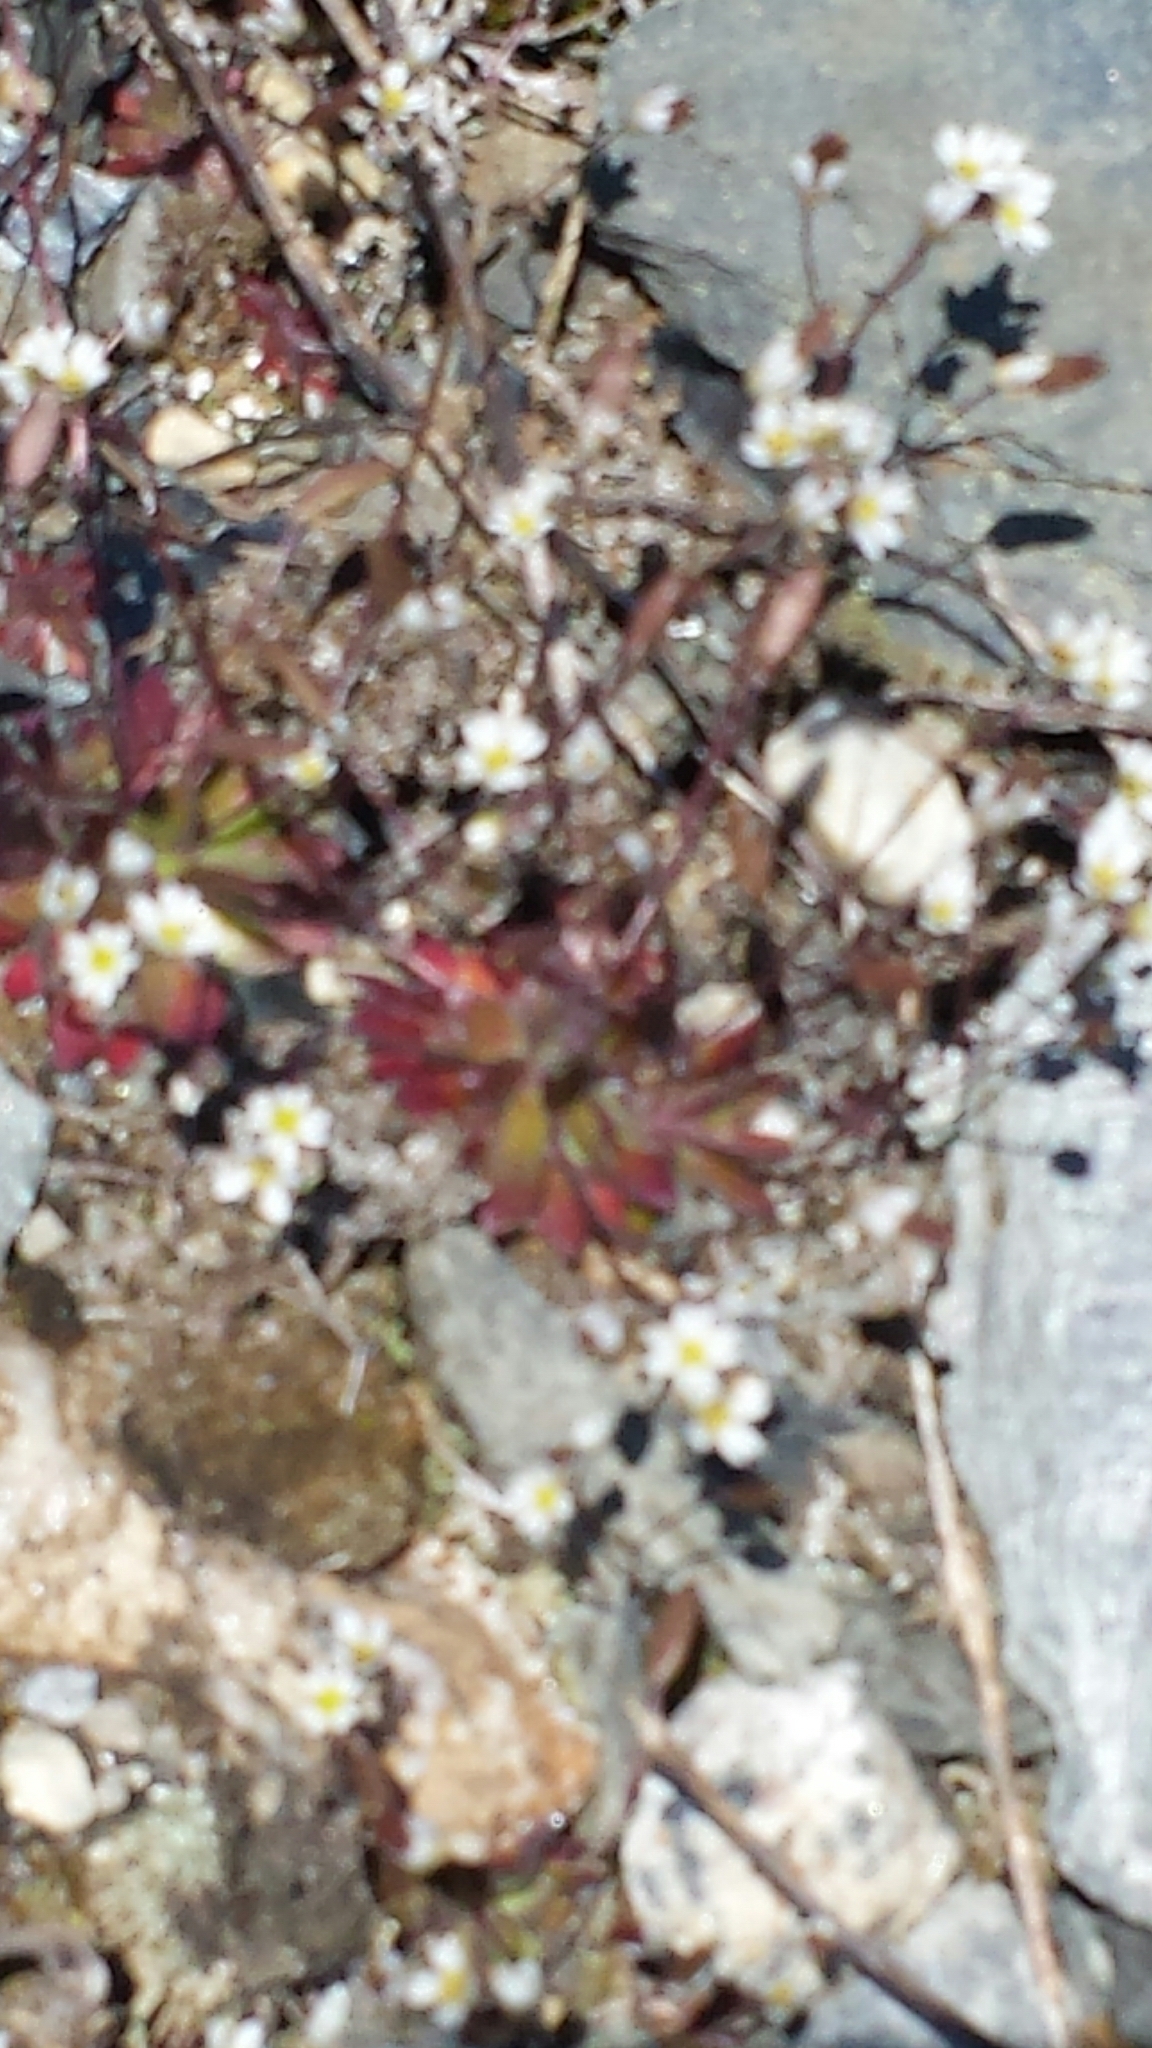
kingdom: Plantae
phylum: Tracheophyta
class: Magnoliopsida
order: Brassicales
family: Brassicaceae
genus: Draba
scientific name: Draba verna
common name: Spring draba
